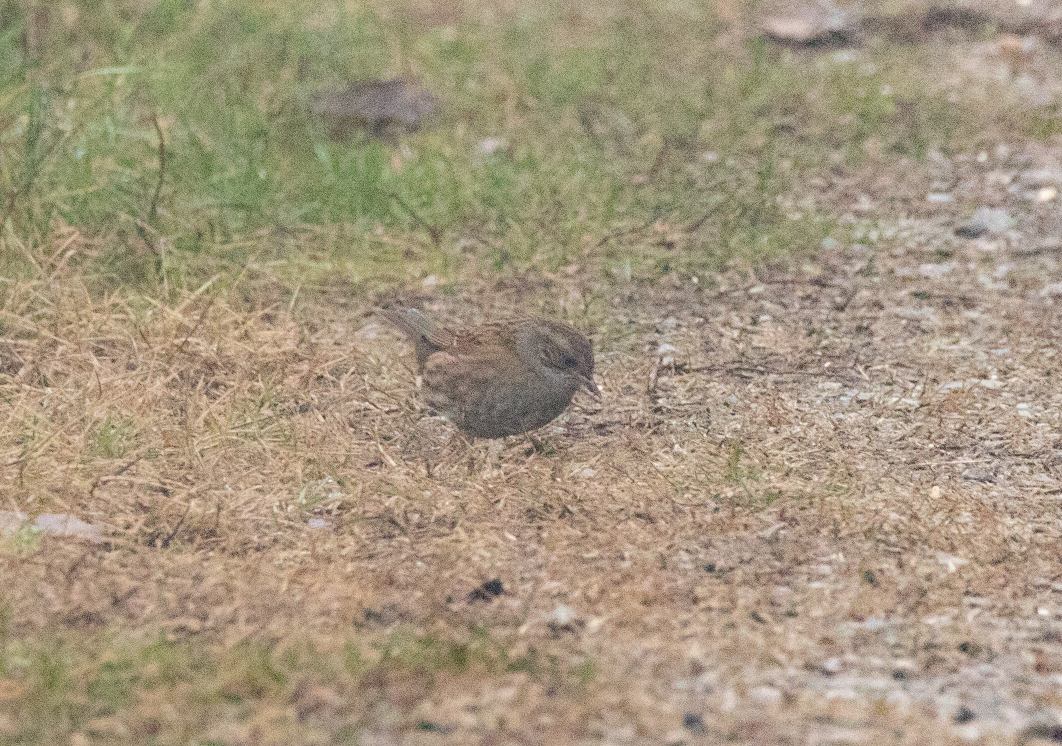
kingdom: Animalia
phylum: Chordata
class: Aves
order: Passeriformes
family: Prunellidae
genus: Prunella
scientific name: Prunella modularis
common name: Dunnock
